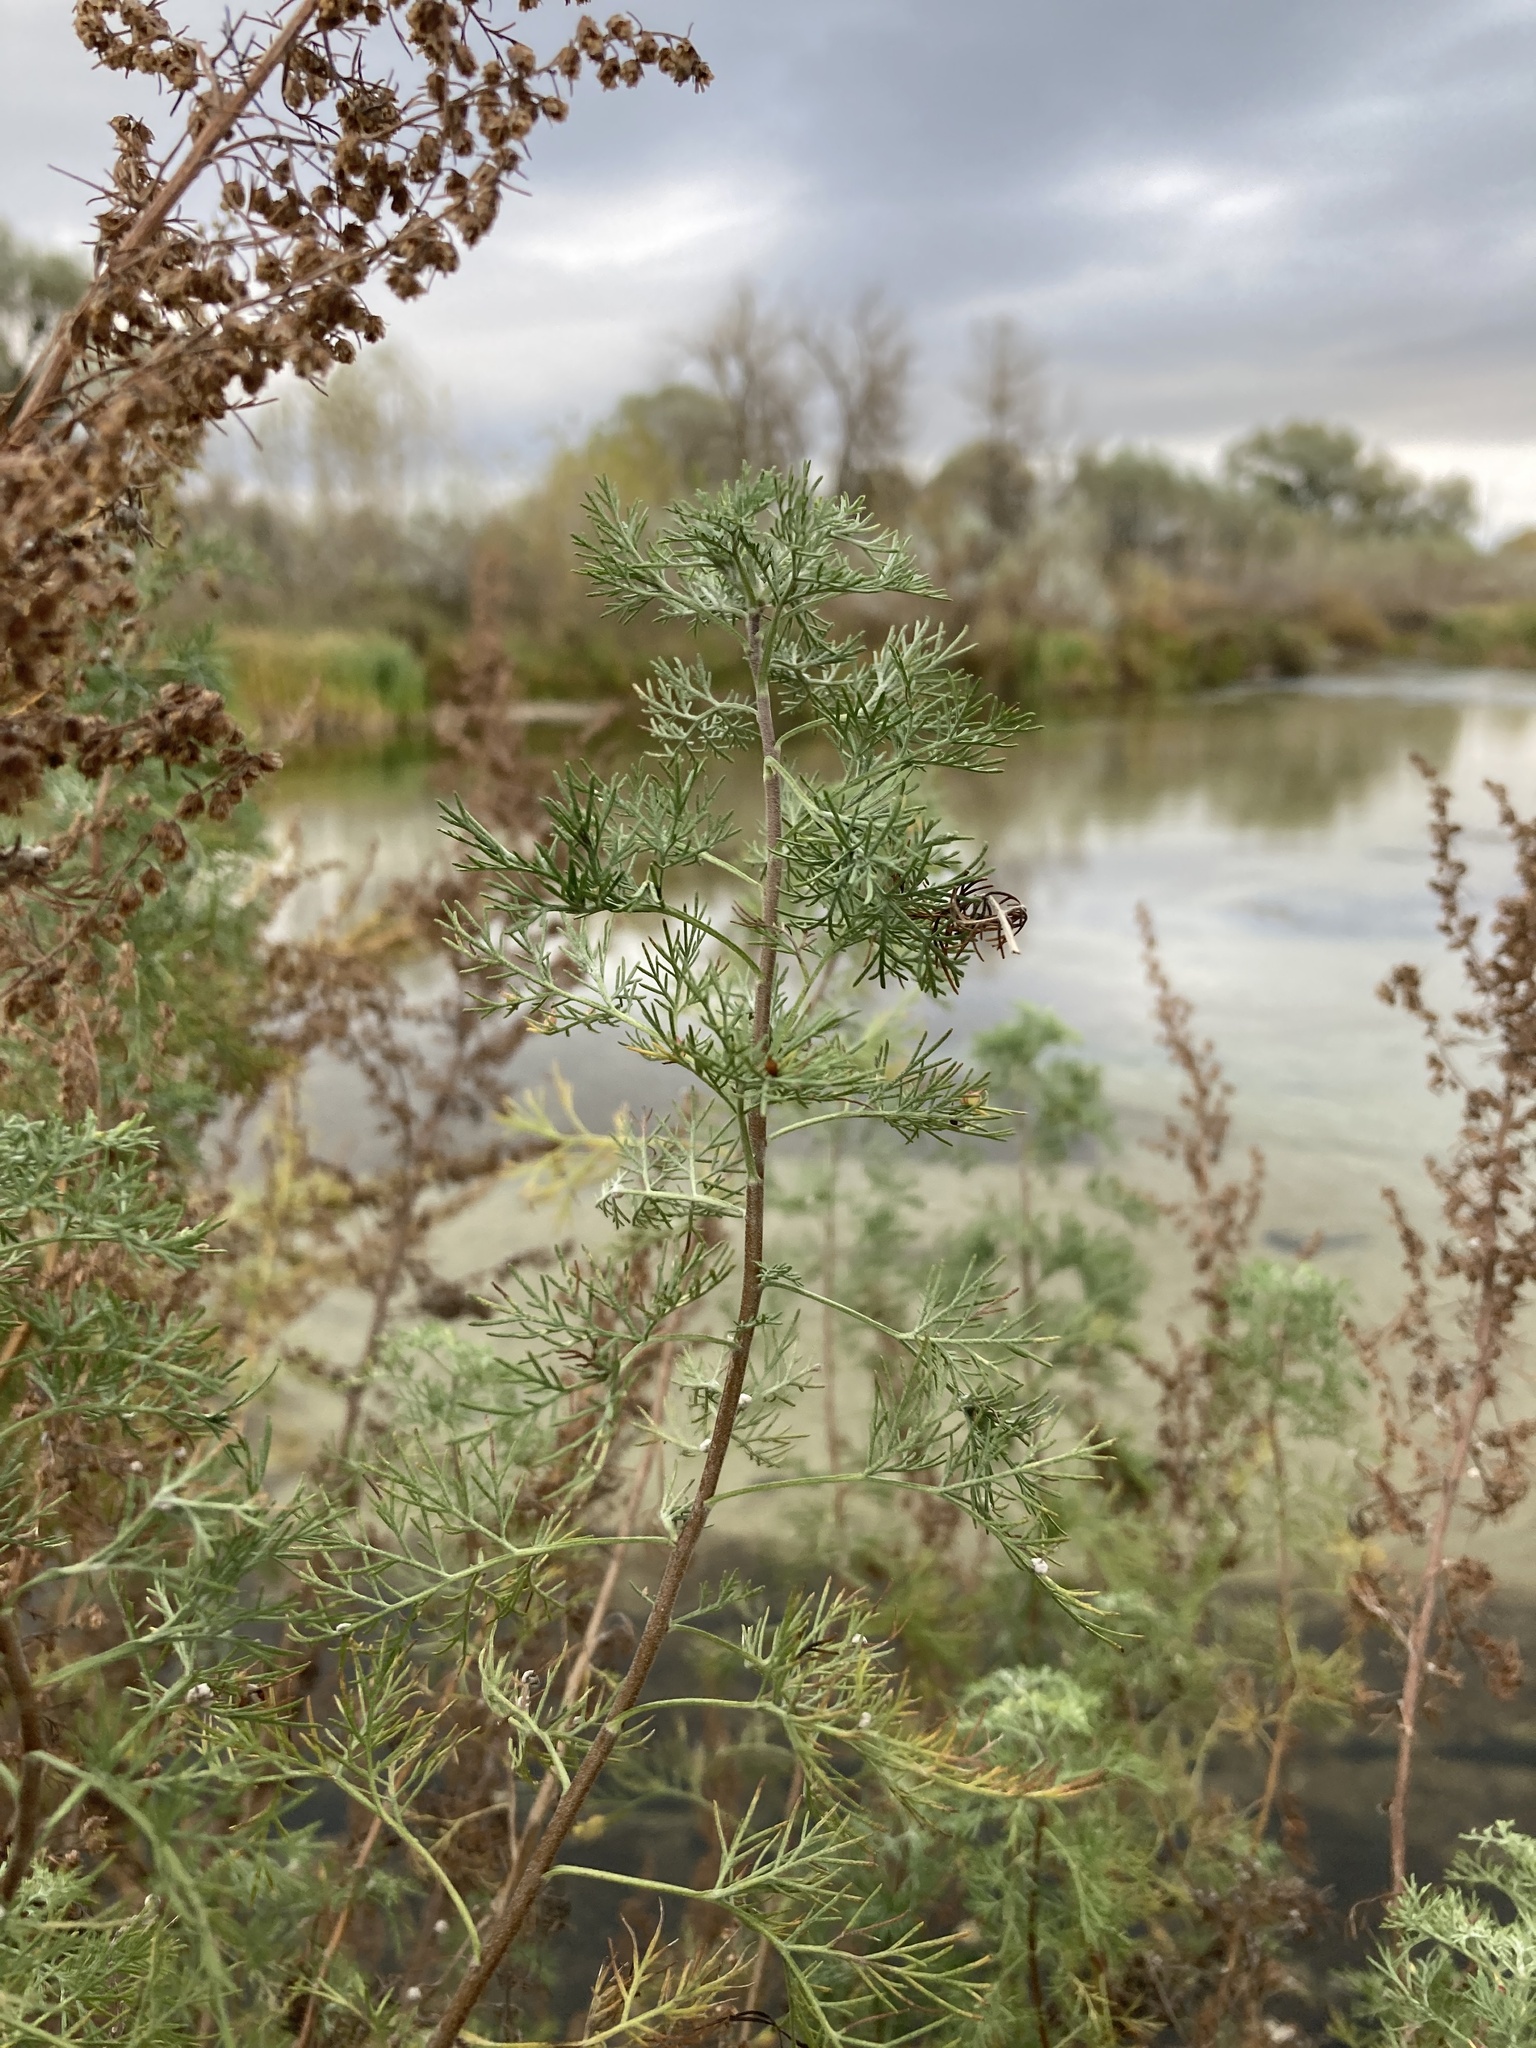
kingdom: Plantae
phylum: Tracheophyta
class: Magnoliopsida
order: Asterales
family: Asteraceae
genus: Artemisia
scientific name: Artemisia abrotanum
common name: Southernwood
